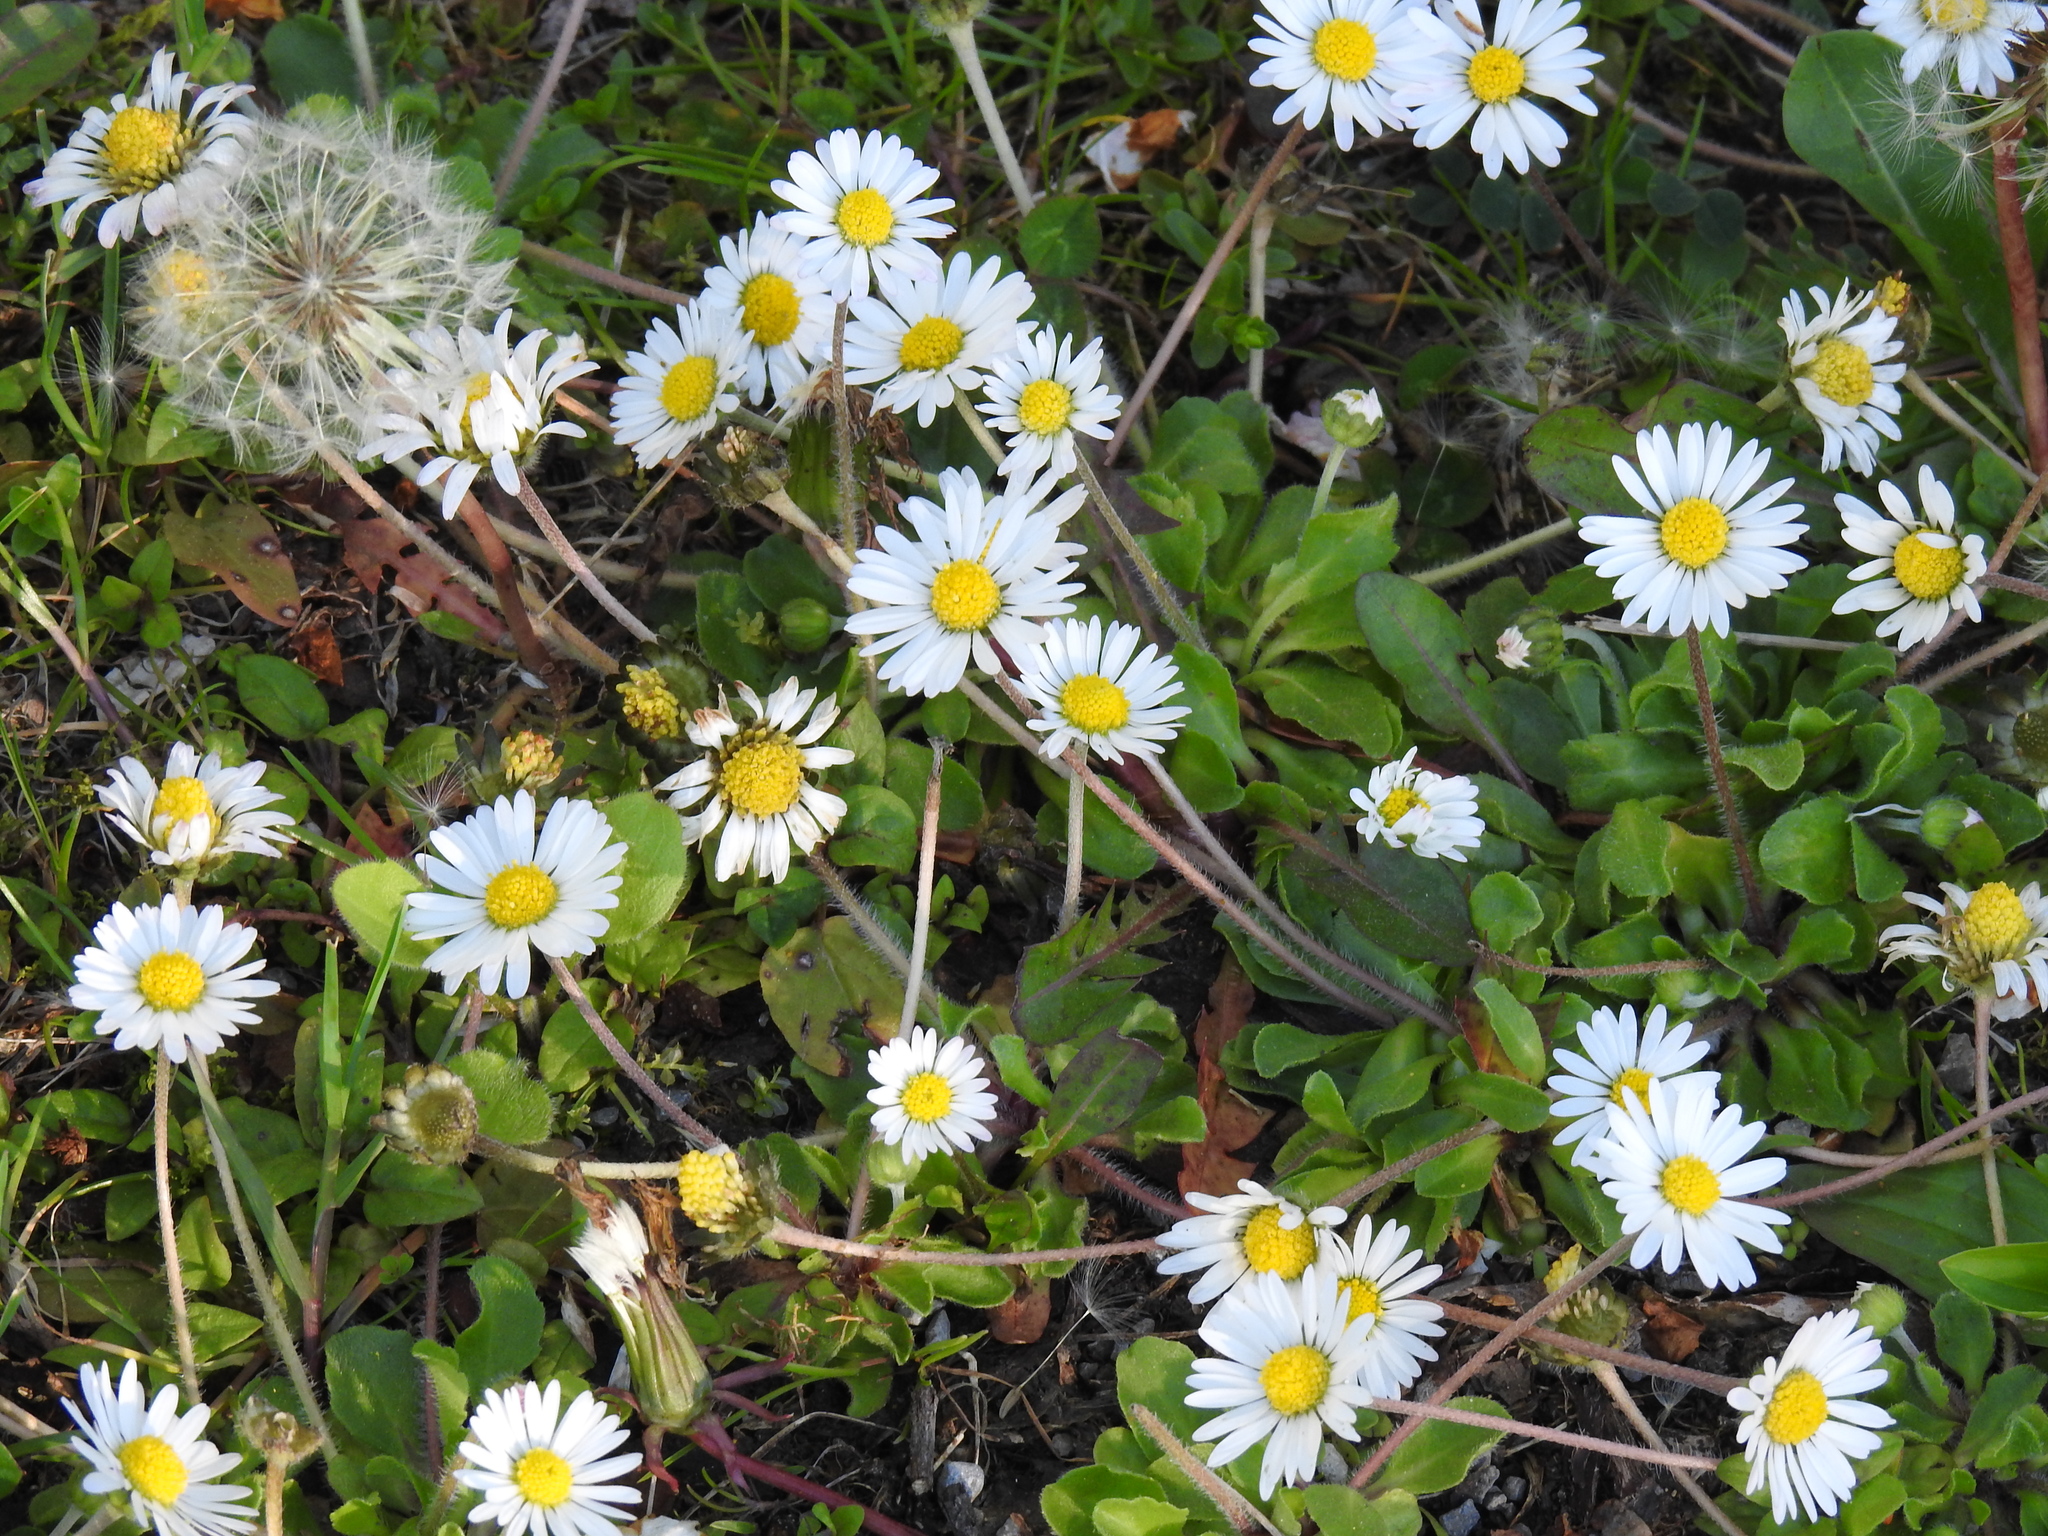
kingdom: Plantae
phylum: Tracheophyta
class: Magnoliopsida
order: Asterales
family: Asteraceae
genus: Bellis
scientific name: Bellis perennis
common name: Lawndaisy
